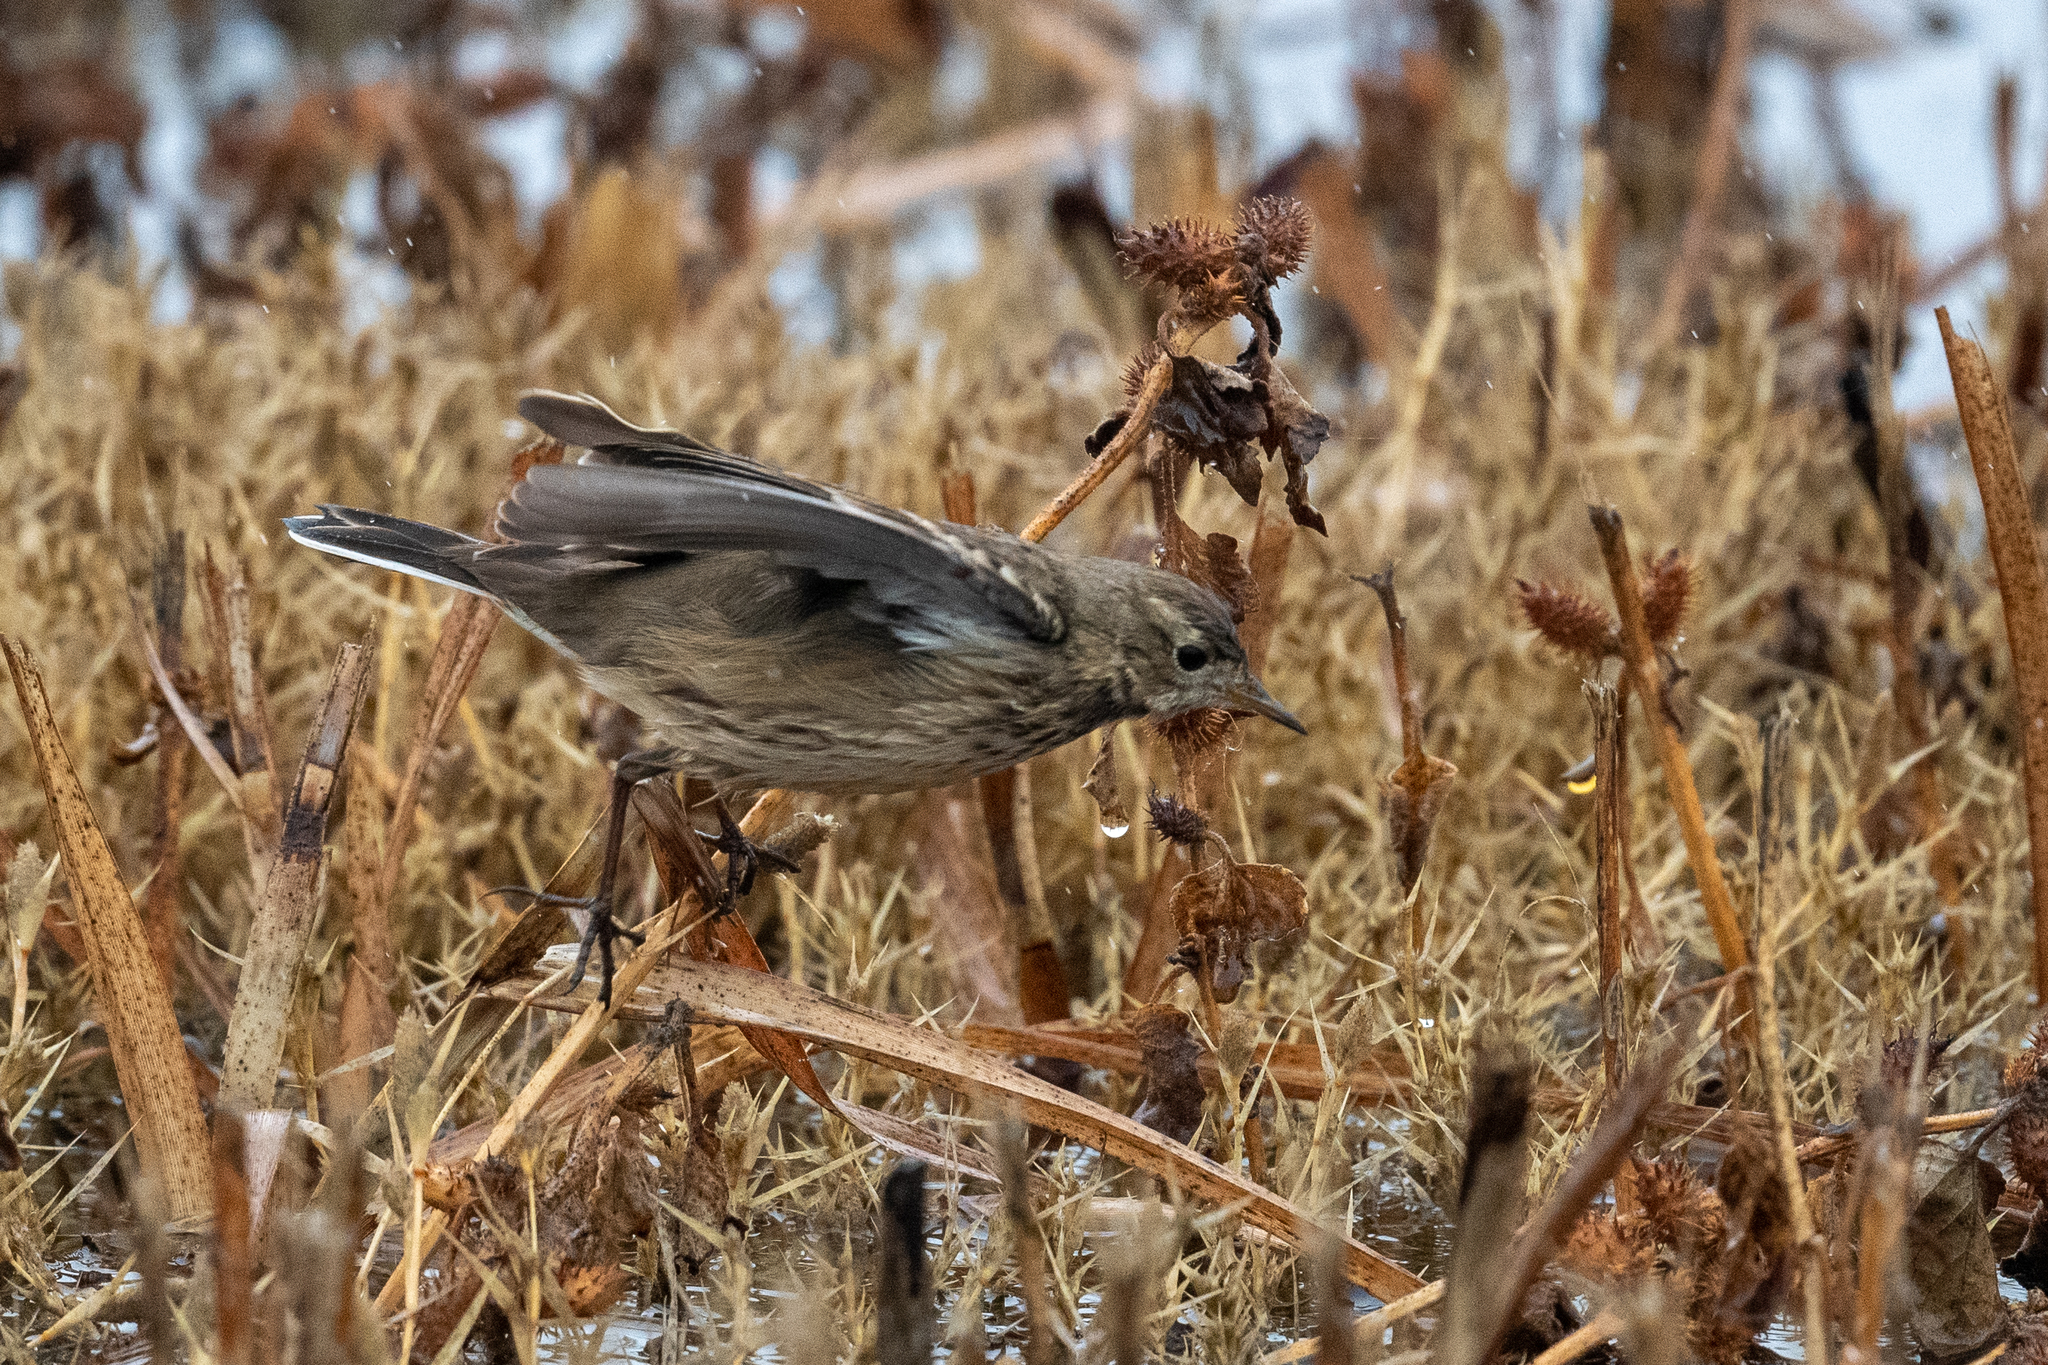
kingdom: Animalia
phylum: Chordata
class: Aves
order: Passeriformes
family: Motacillidae
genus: Anthus
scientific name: Anthus rubescens
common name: Buff-bellied pipit
